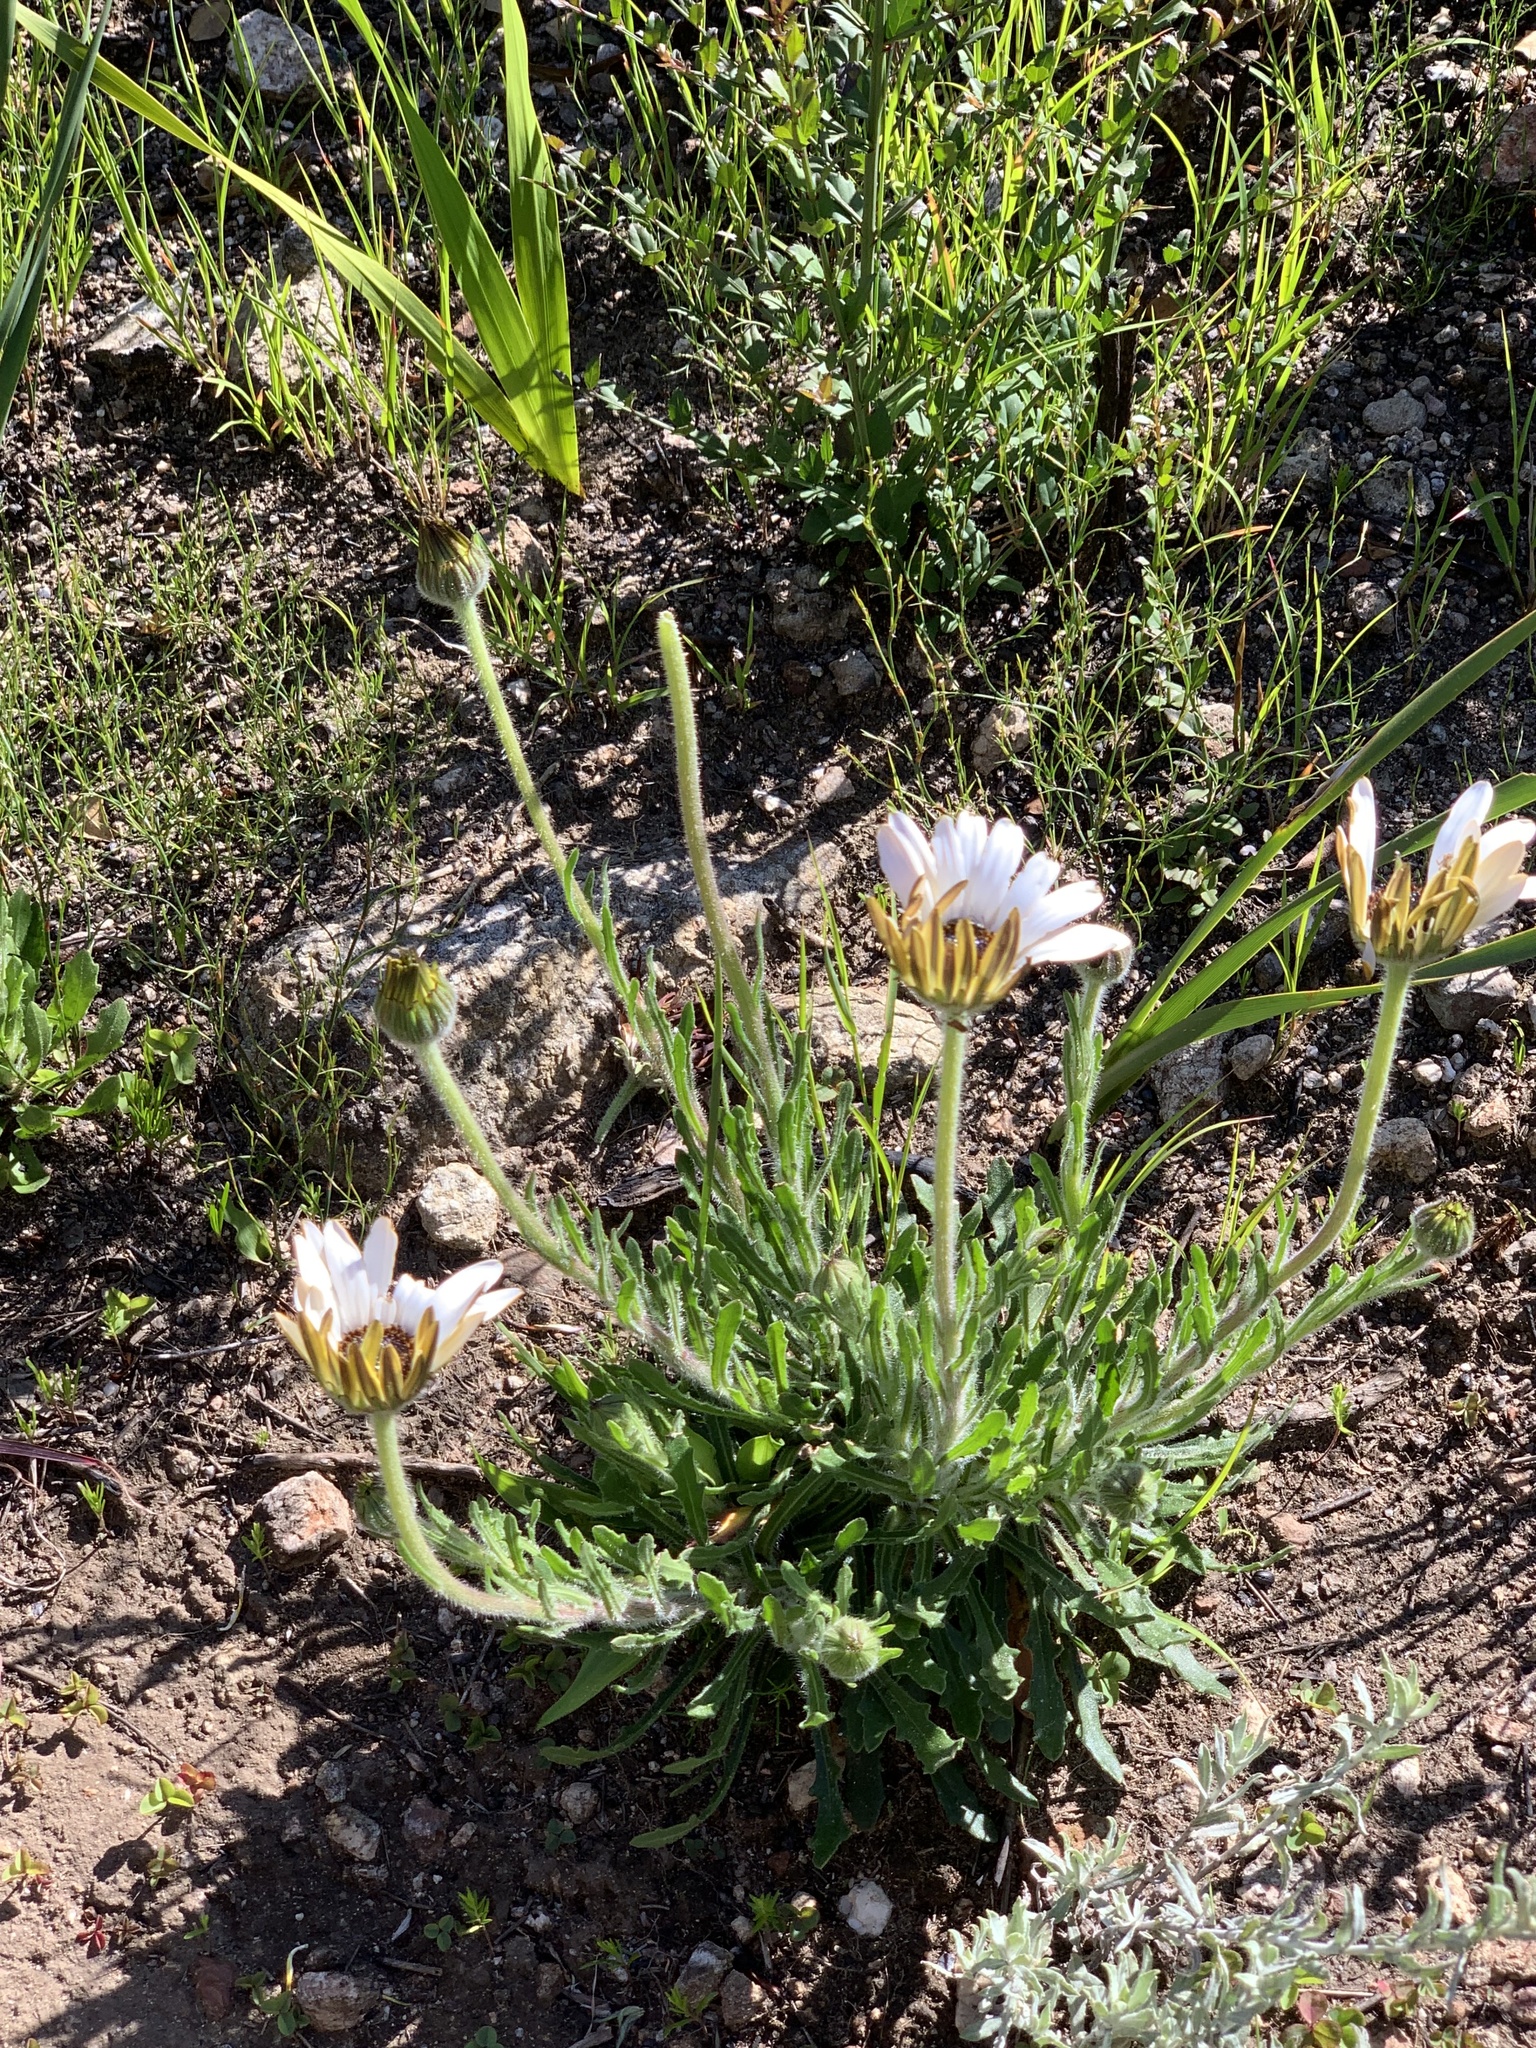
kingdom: Plantae
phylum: Tracheophyta
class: Magnoliopsida
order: Asterales
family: Asteraceae
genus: Dimorphotheca
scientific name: Dimorphotheca nudicaulis
